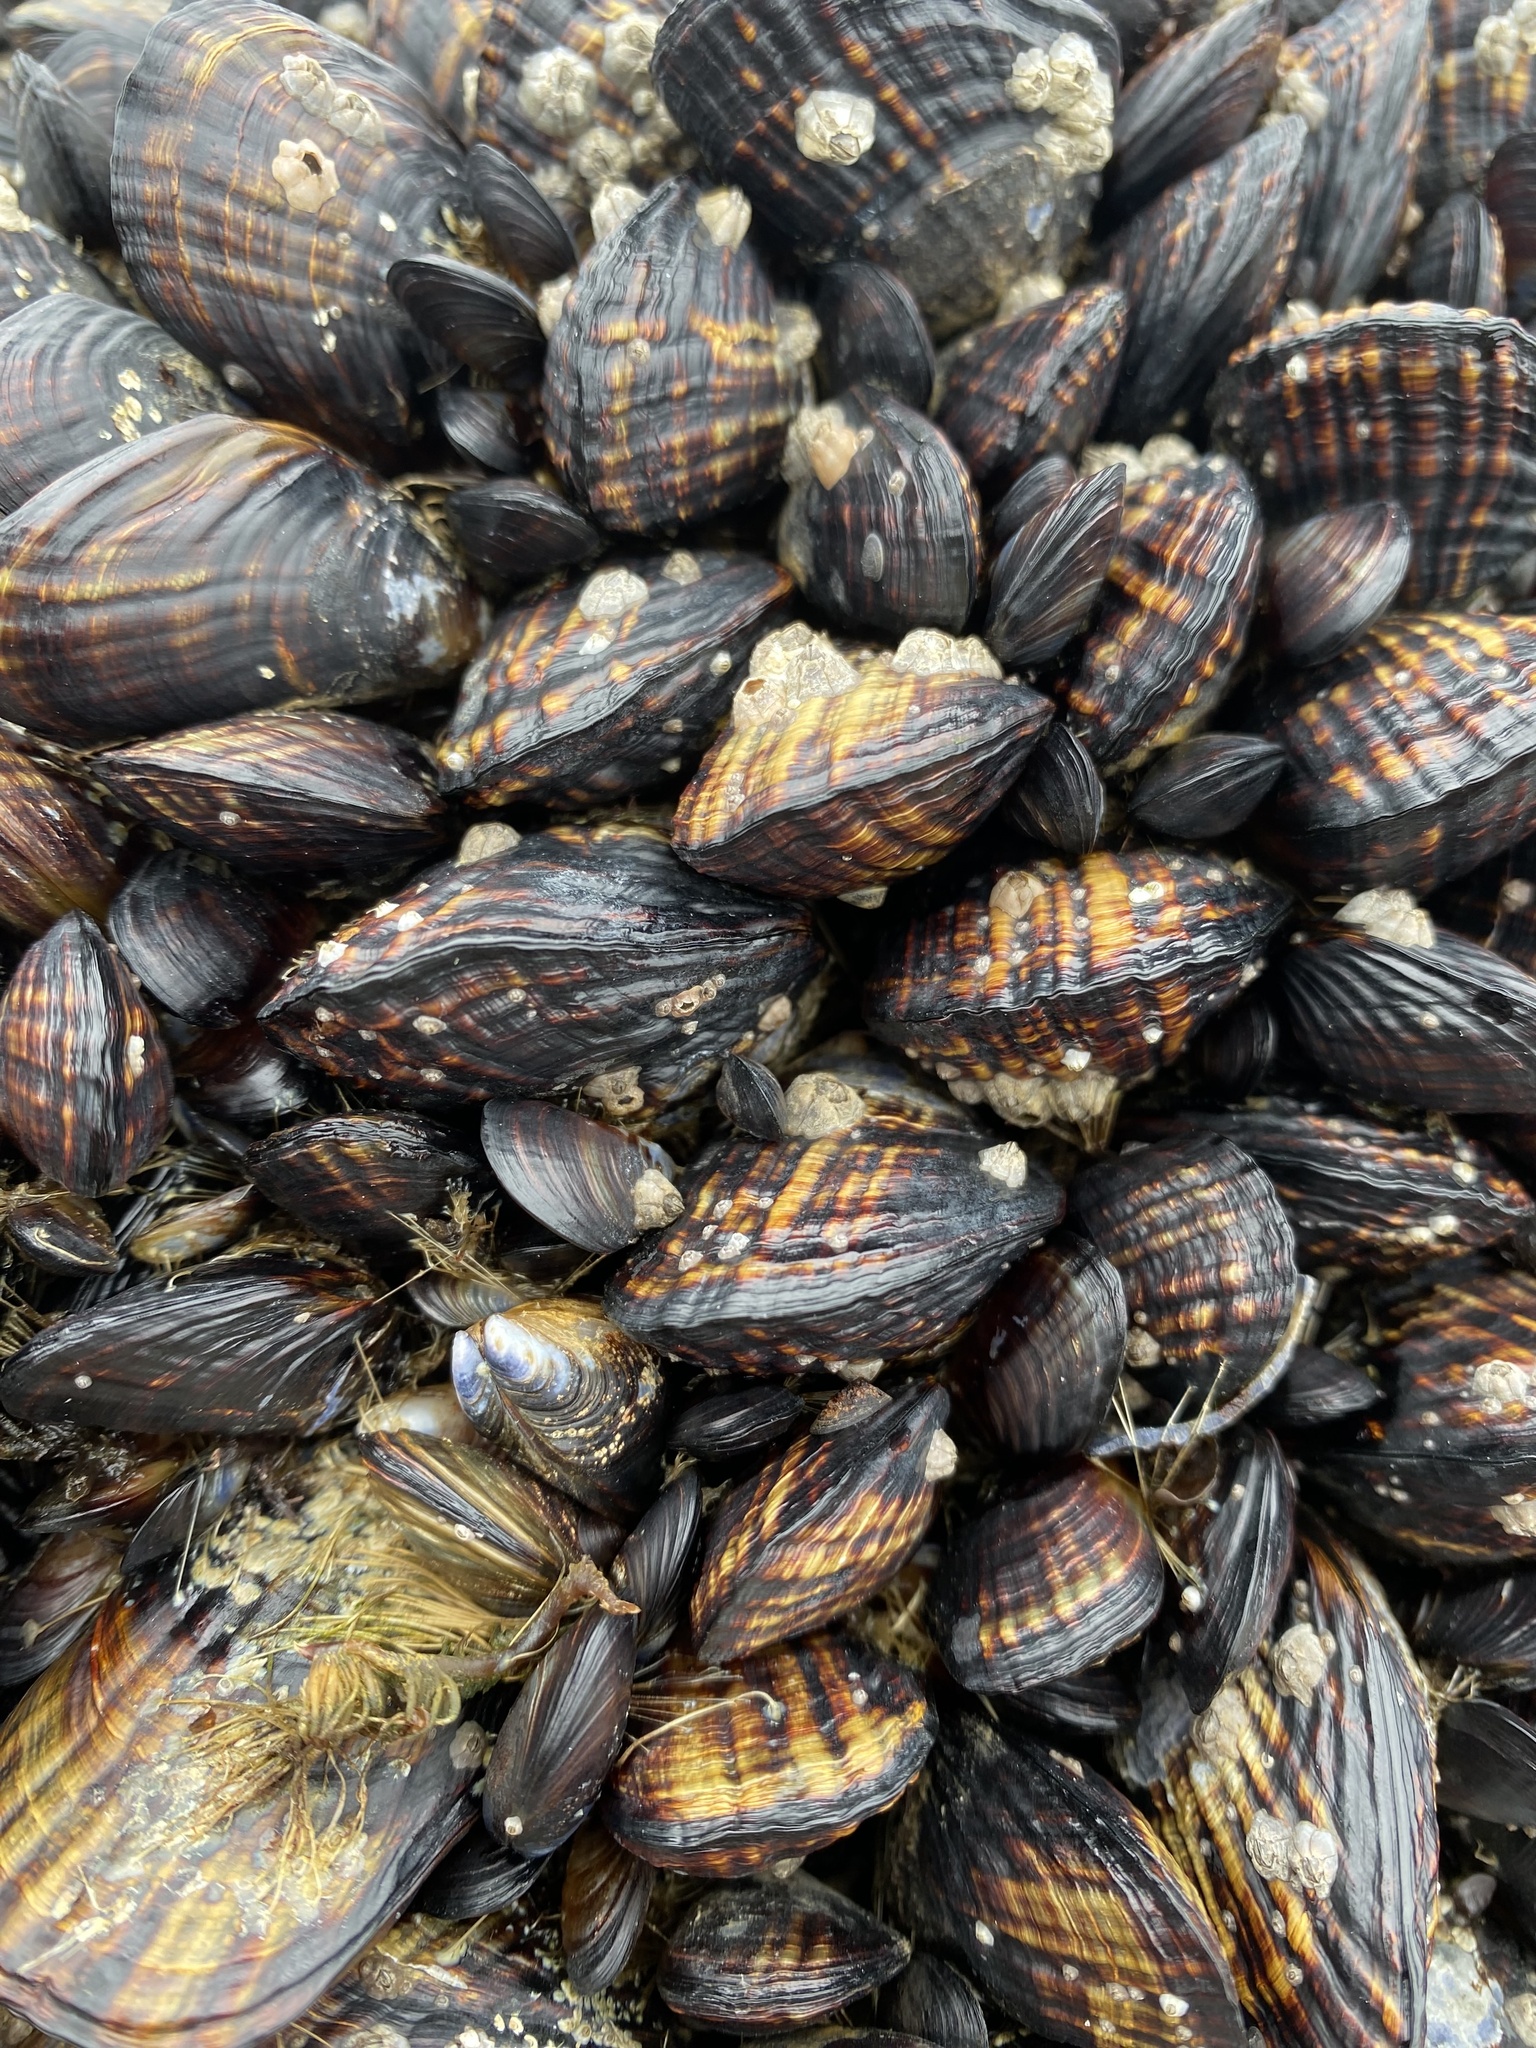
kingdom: Animalia
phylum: Mollusca
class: Bivalvia
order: Mytilida
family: Mytilidae
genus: Mytilus
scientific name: Mytilus californianus
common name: California mussel
